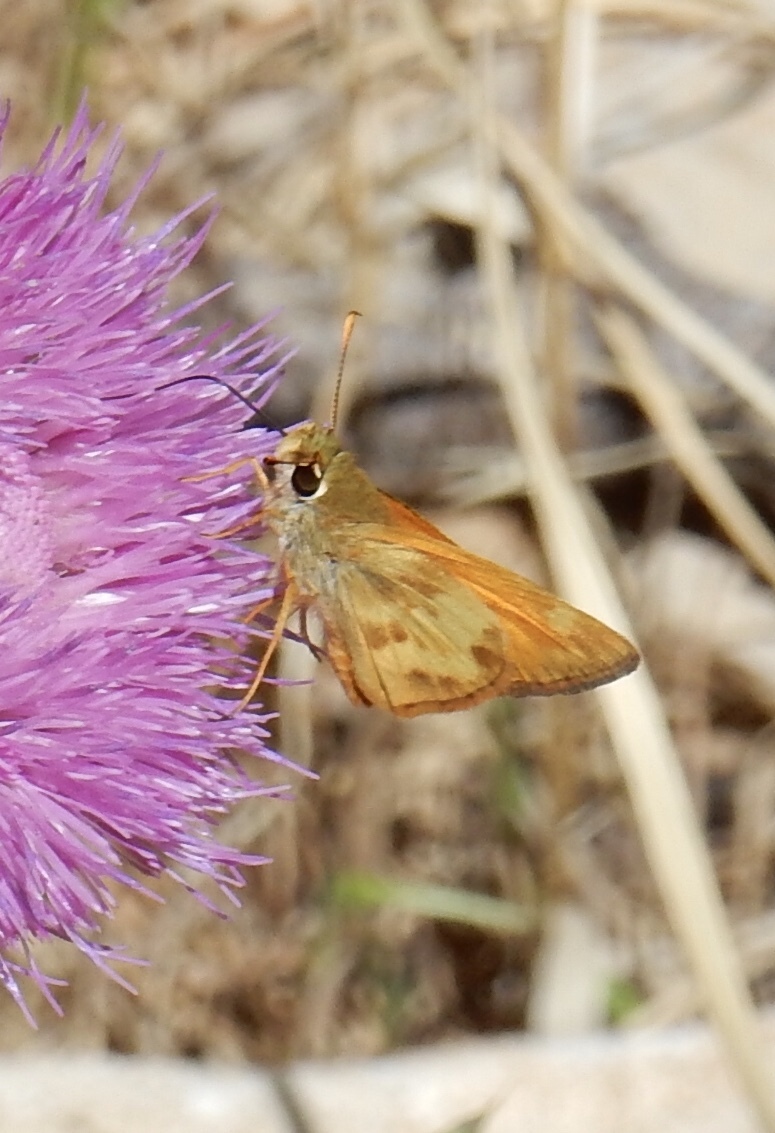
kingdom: Animalia
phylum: Arthropoda
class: Insecta
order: Lepidoptera
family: Hesperiidae
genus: Lon
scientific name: Lon taxiles
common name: Taxiles skipper
